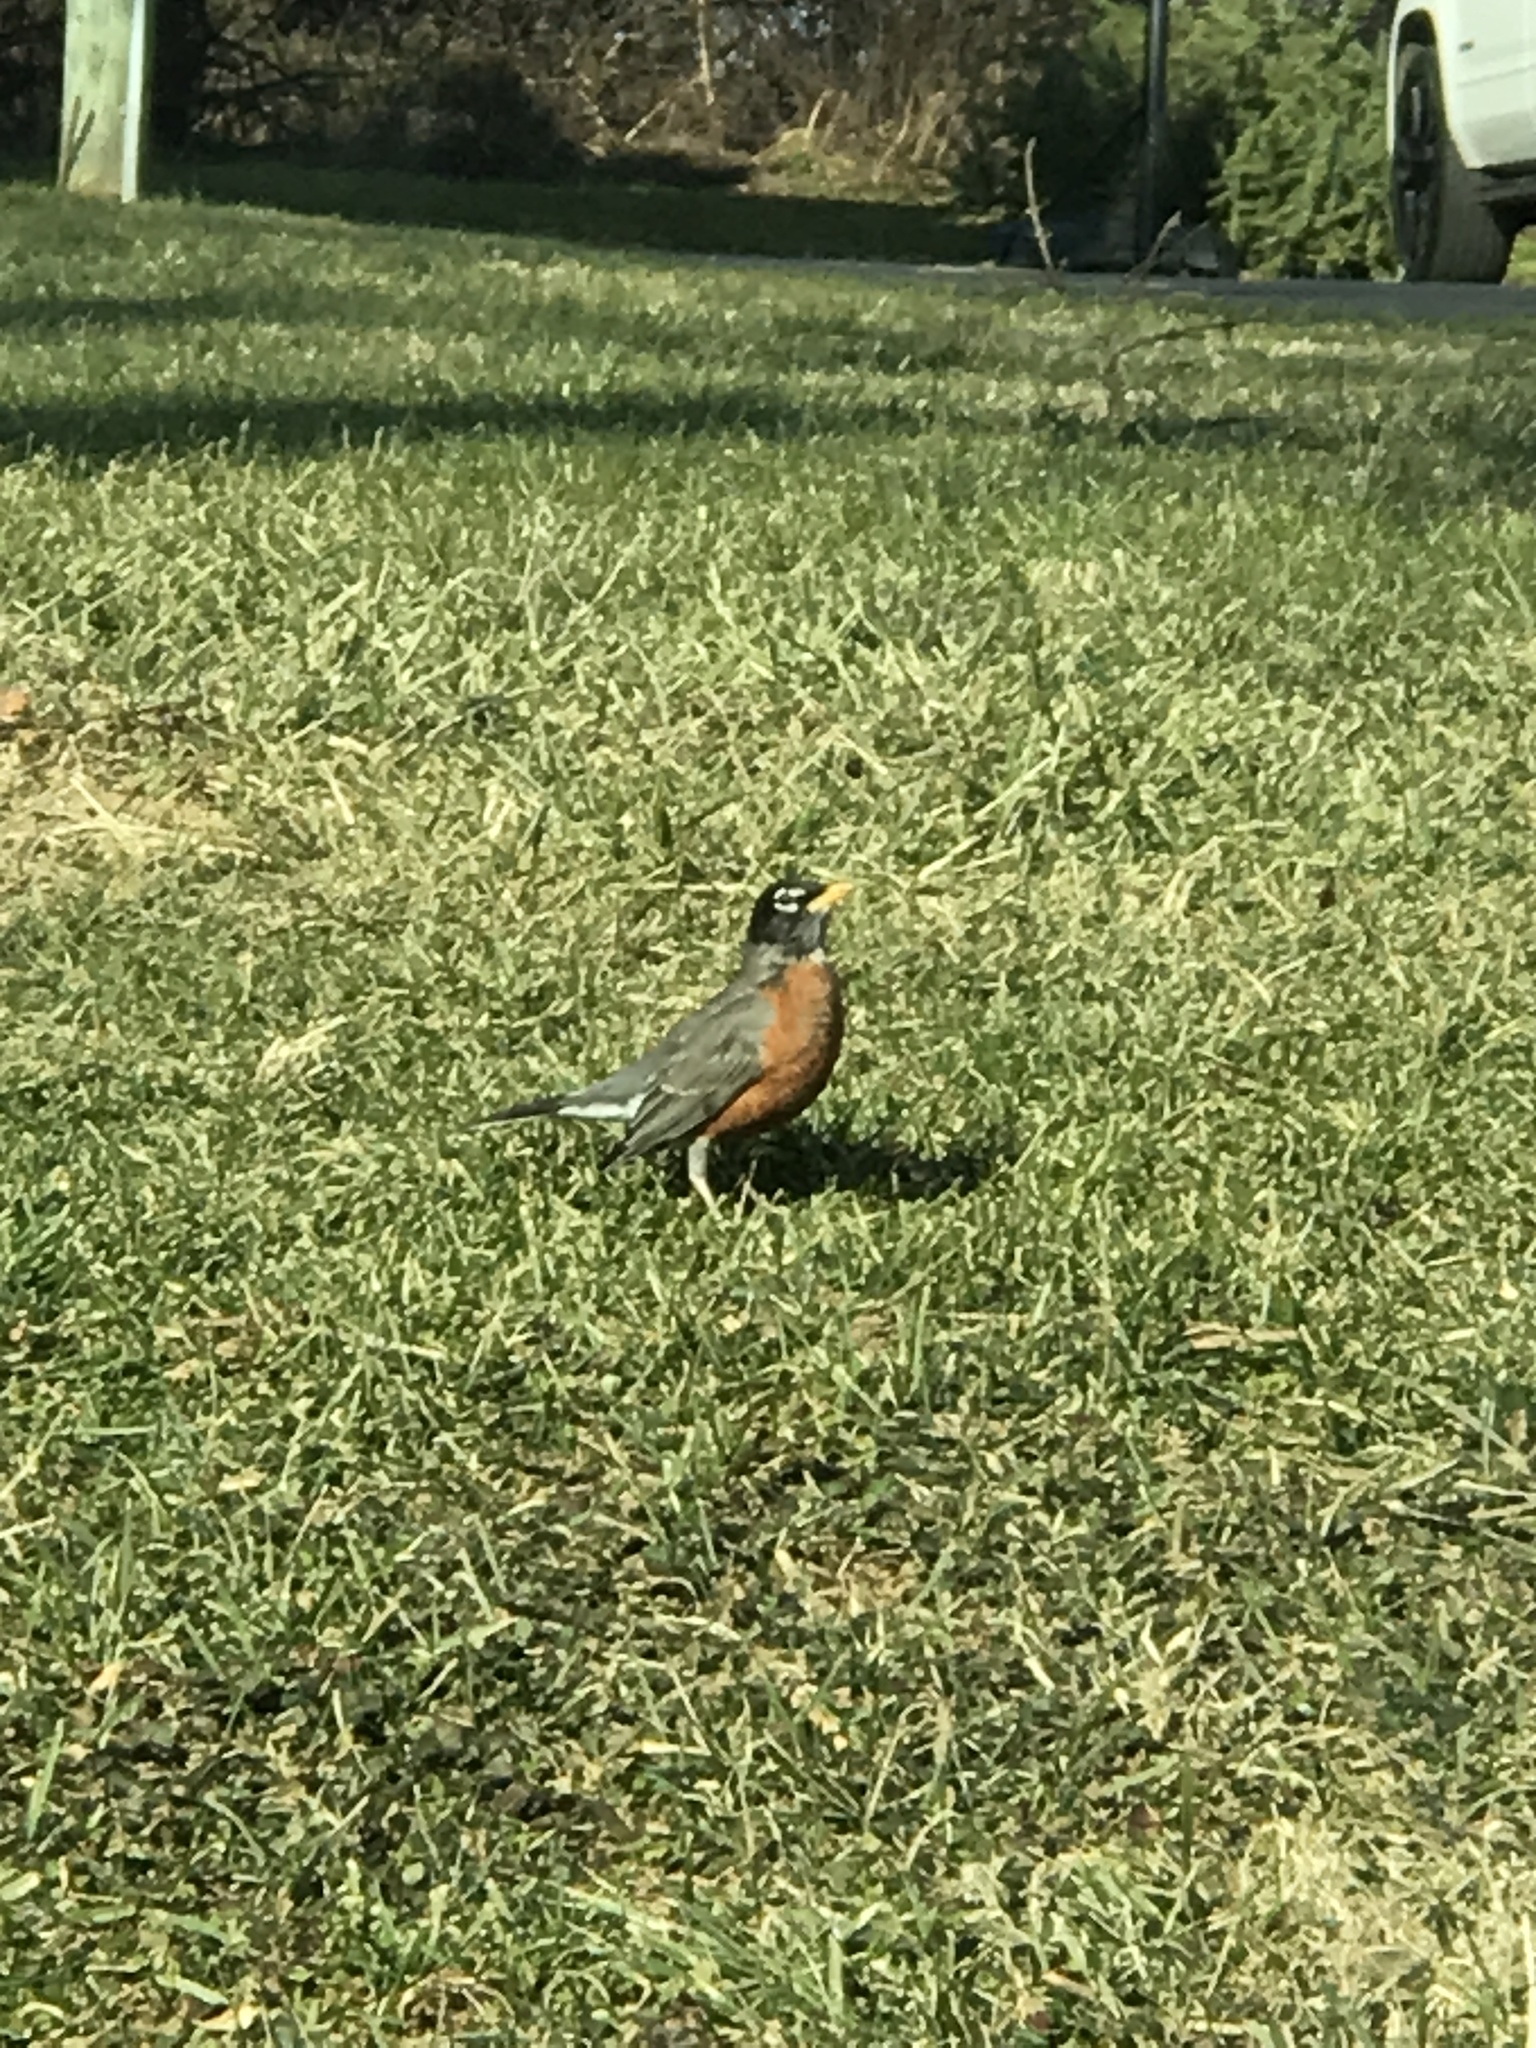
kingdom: Animalia
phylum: Chordata
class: Aves
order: Passeriformes
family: Turdidae
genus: Turdus
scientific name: Turdus migratorius
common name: American robin
